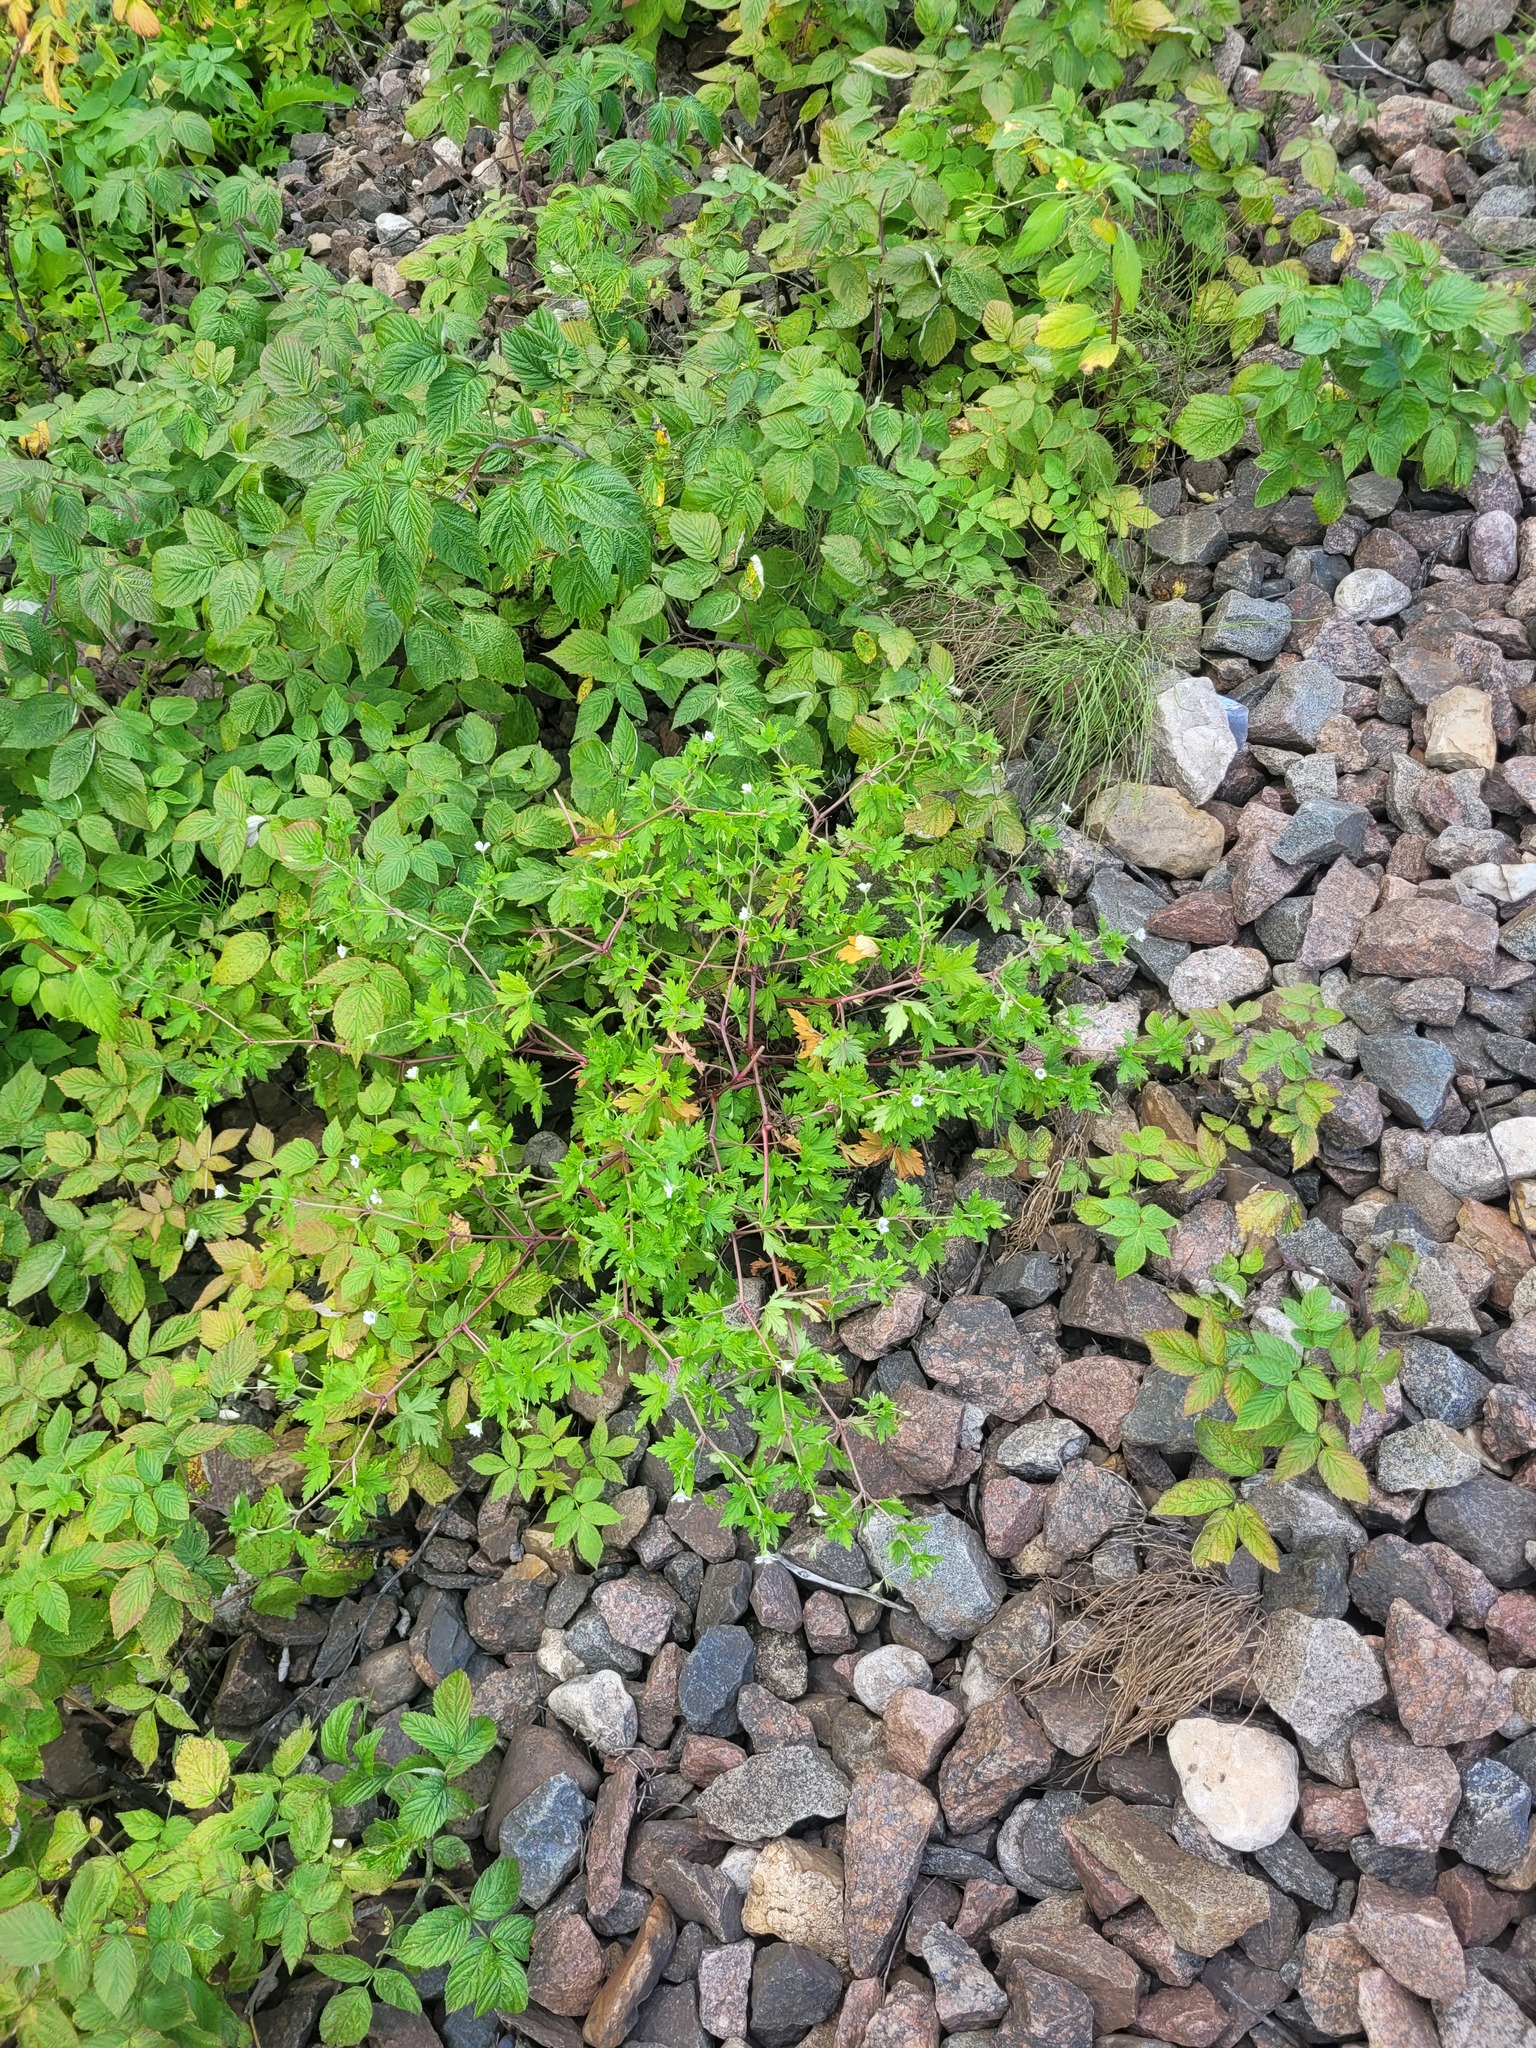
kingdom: Plantae
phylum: Tracheophyta
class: Magnoliopsida
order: Geraniales
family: Geraniaceae
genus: Geranium
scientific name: Geranium sibiricum
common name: Siberian crane's-bill
